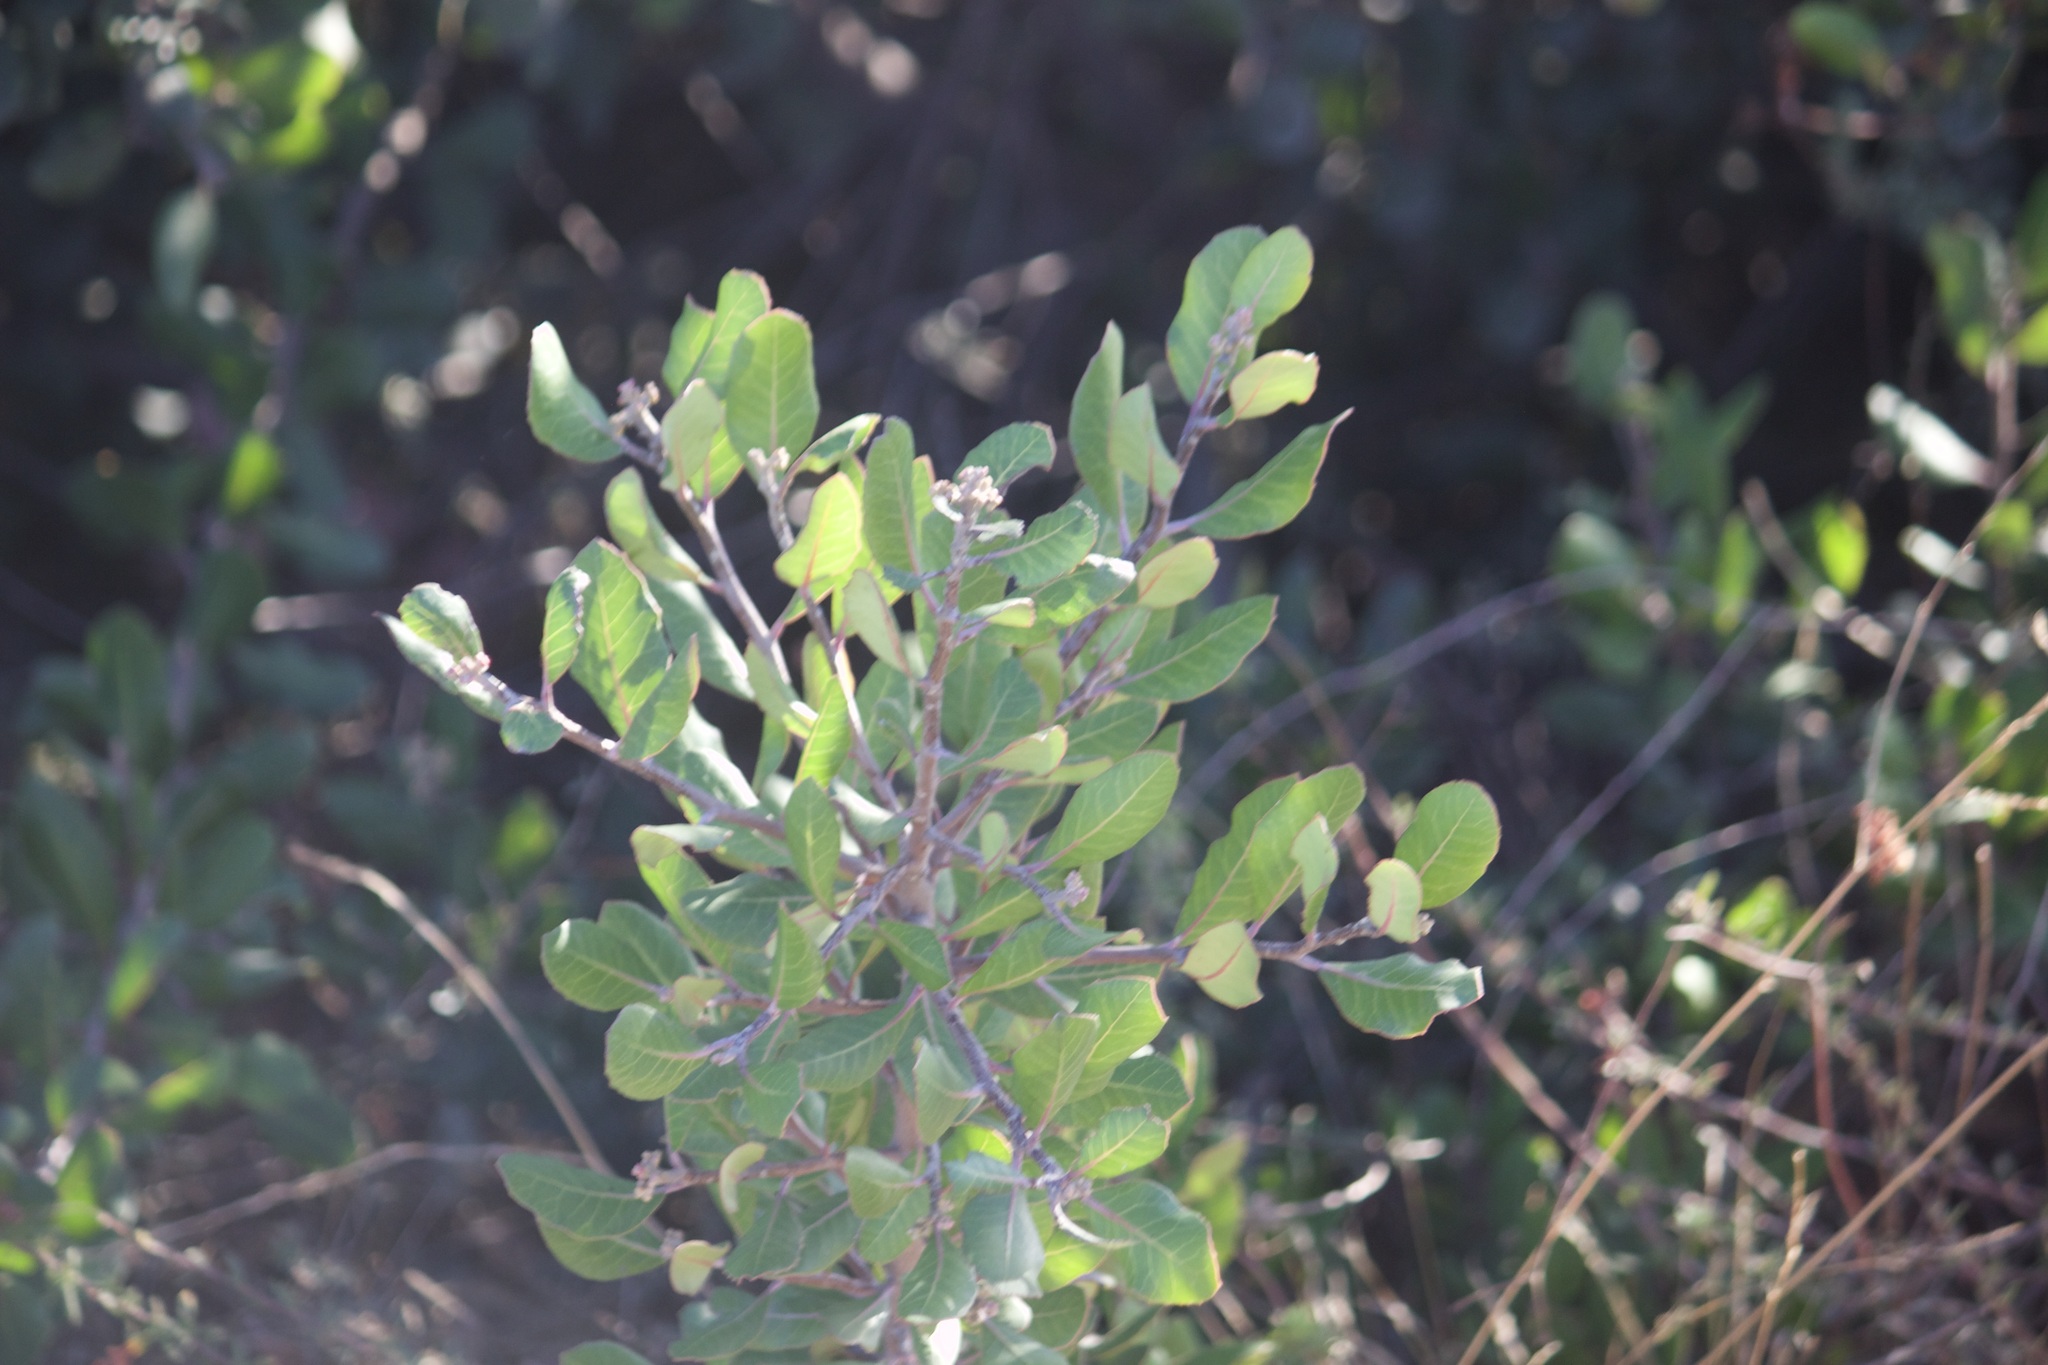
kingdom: Plantae
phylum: Tracheophyta
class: Magnoliopsida
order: Sapindales
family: Anacardiaceae
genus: Rhus
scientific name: Rhus integrifolia
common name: Lemonade sumac
